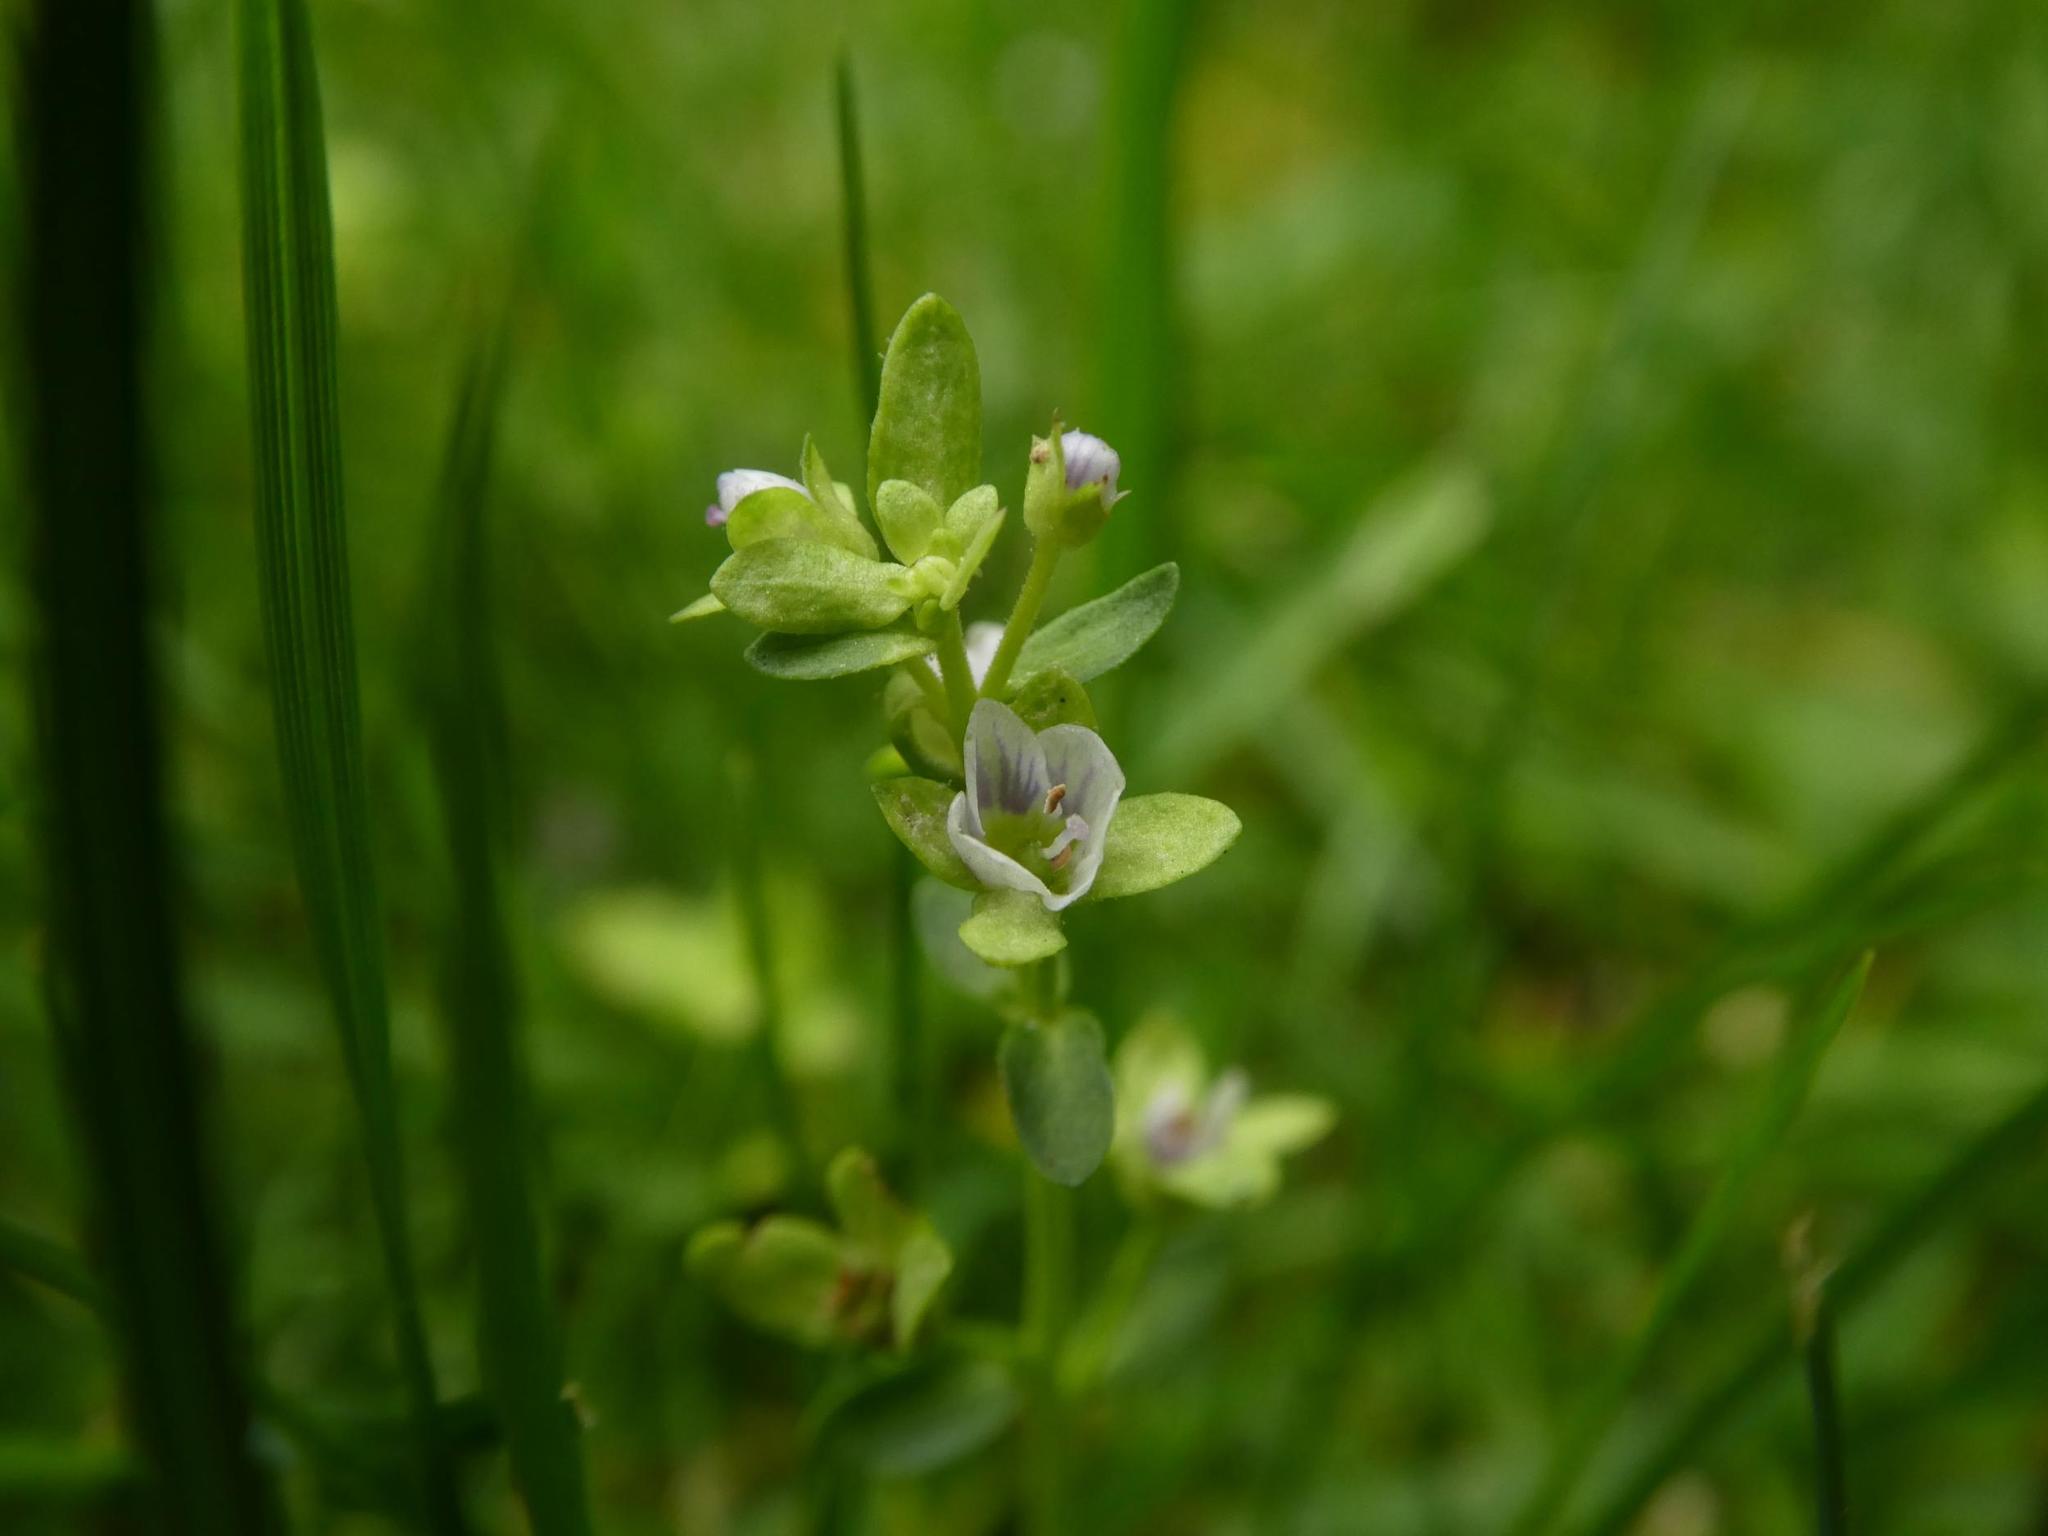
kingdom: Plantae
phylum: Tracheophyta
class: Magnoliopsida
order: Lamiales
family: Plantaginaceae
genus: Veronica
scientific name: Veronica serpyllifolia
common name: Thyme-leaved speedwell
